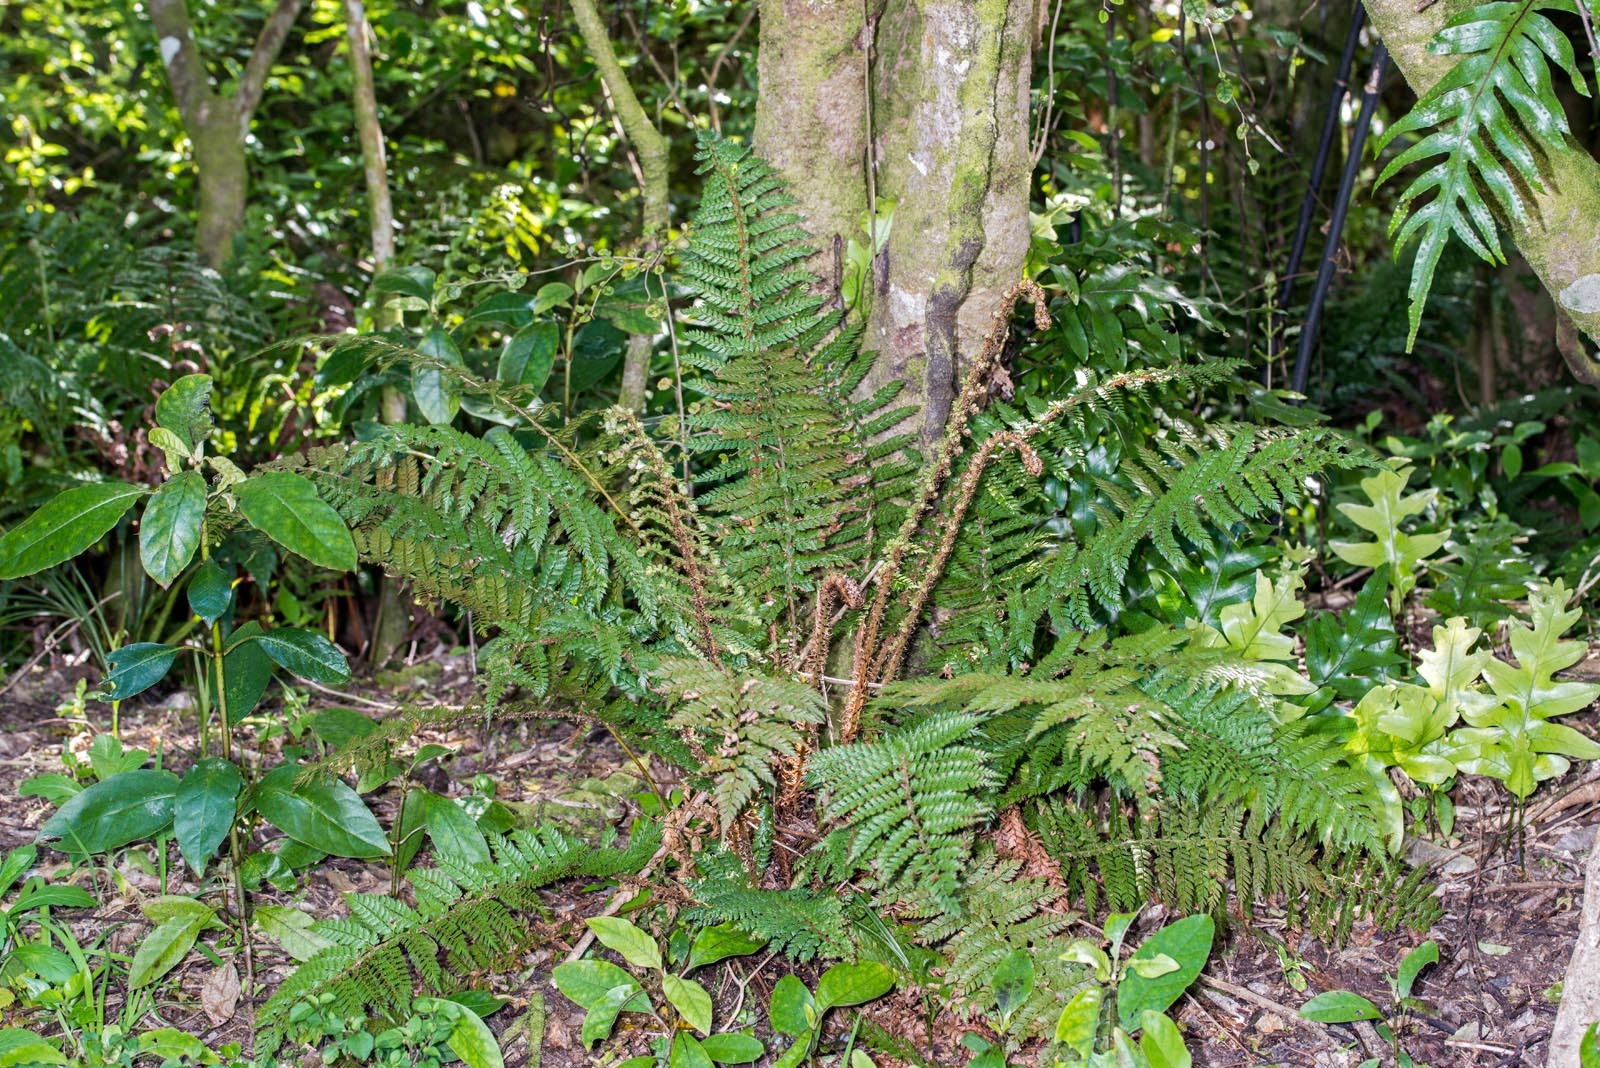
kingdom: Plantae
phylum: Tracheophyta
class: Polypodiopsida
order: Polypodiales
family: Dryopteridaceae
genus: Polystichum
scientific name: Polystichum vestitum
